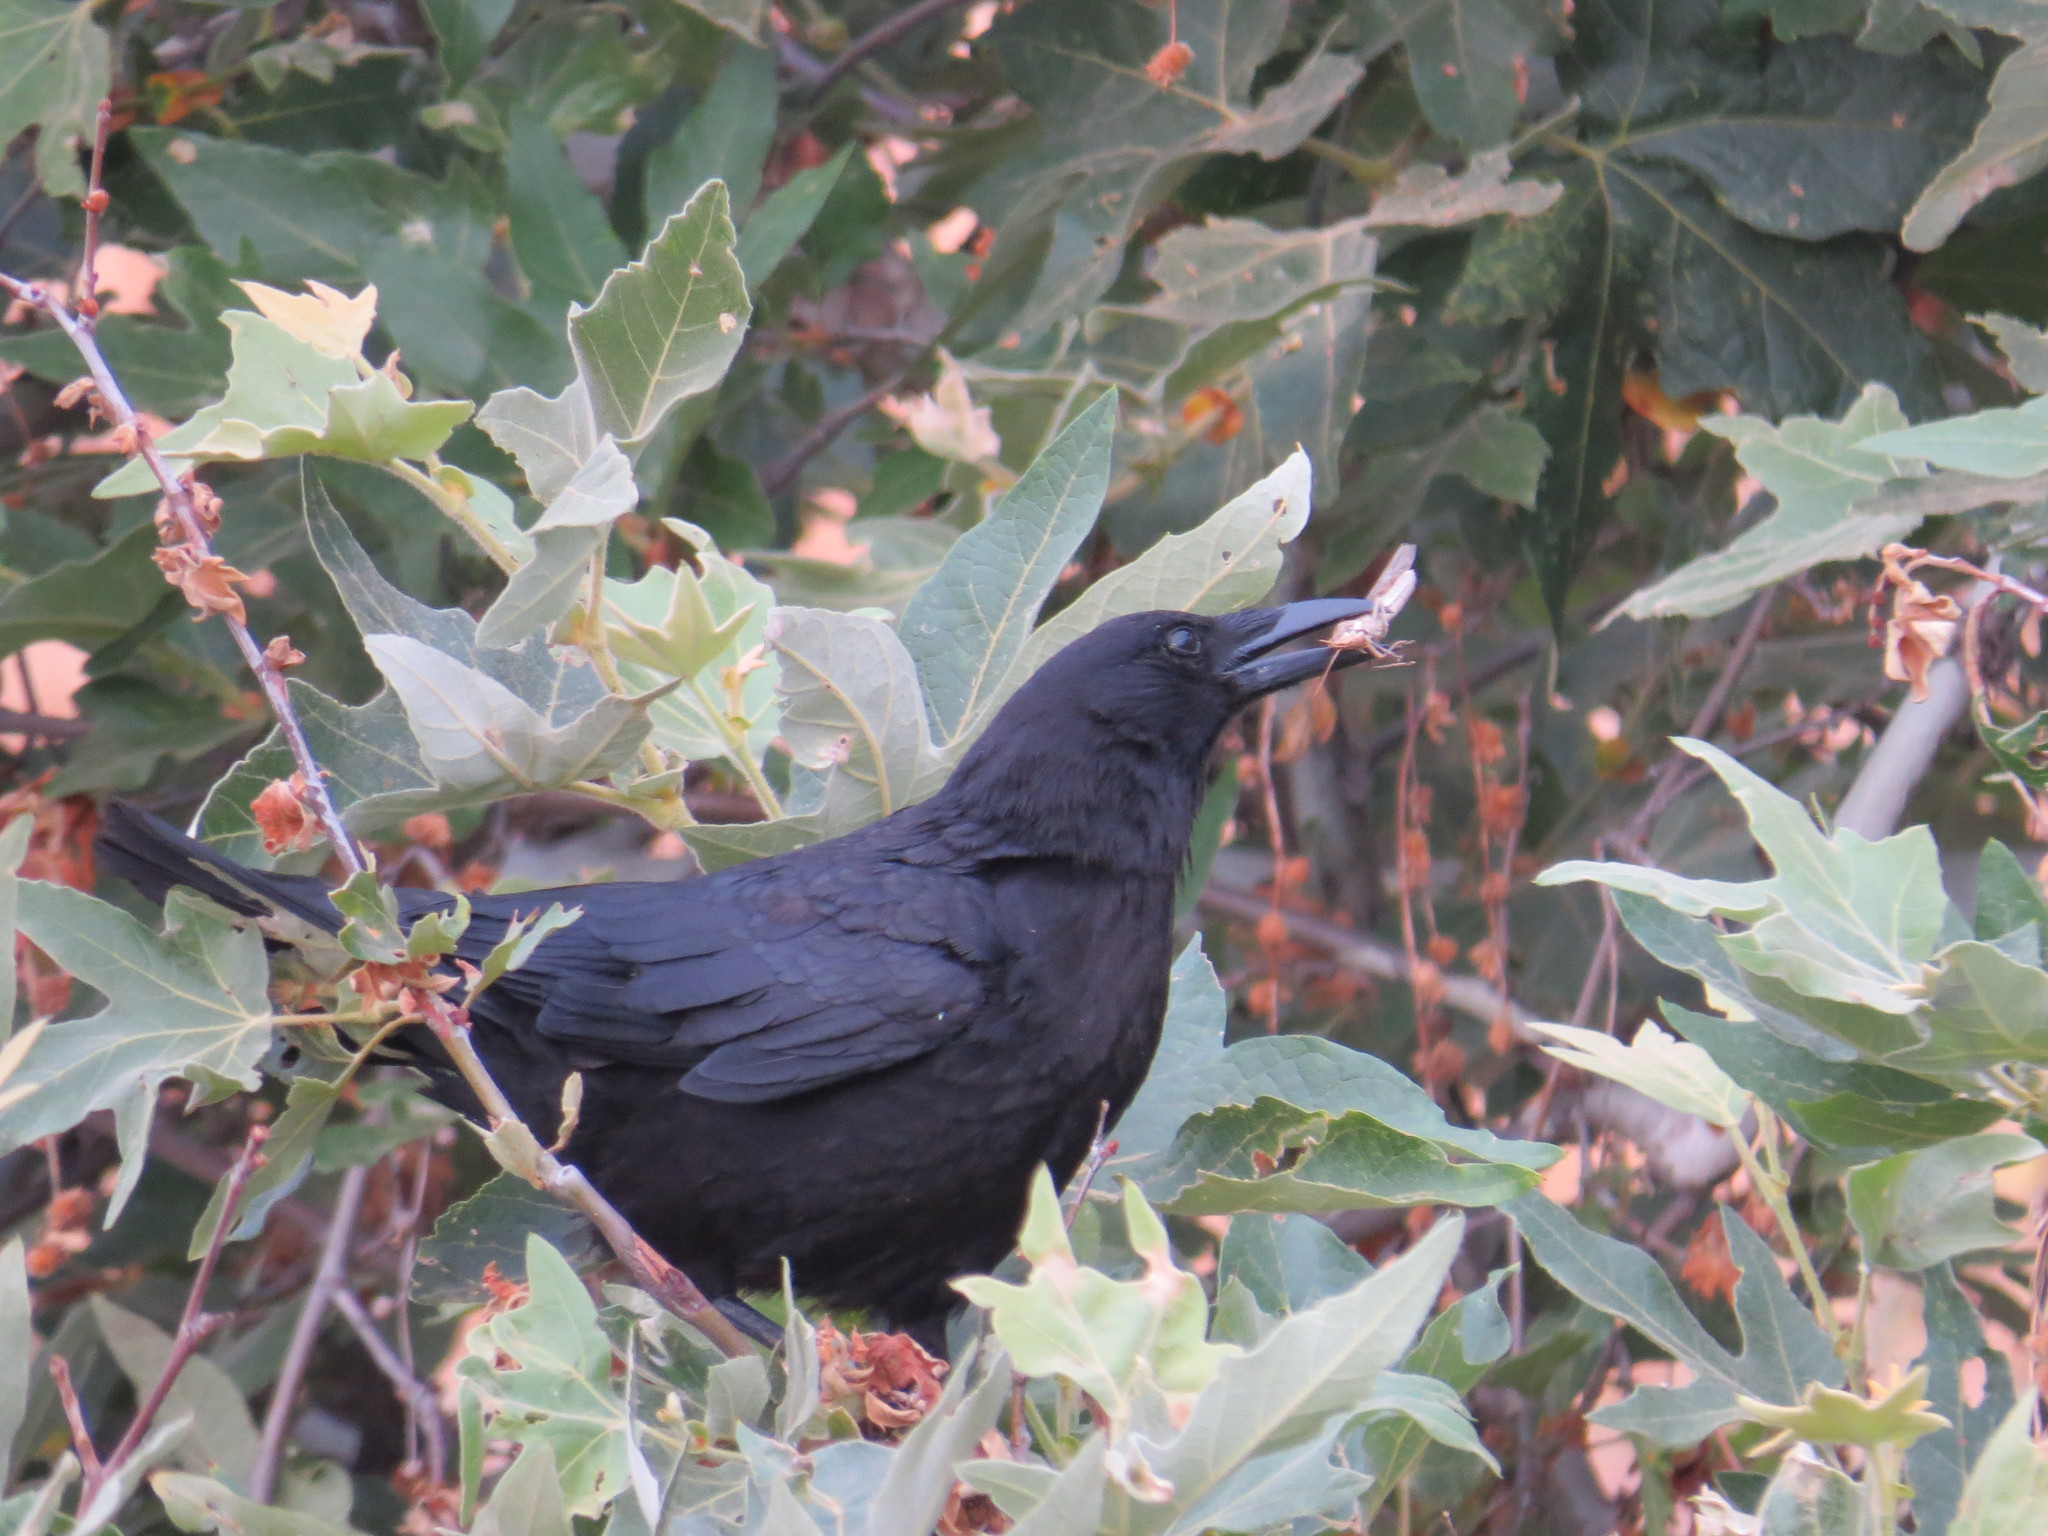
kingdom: Animalia
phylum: Chordata
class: Aves
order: Passeriformes
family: Corvidae
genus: Corvus
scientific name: Corvus brachyrhynchos
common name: American crow
